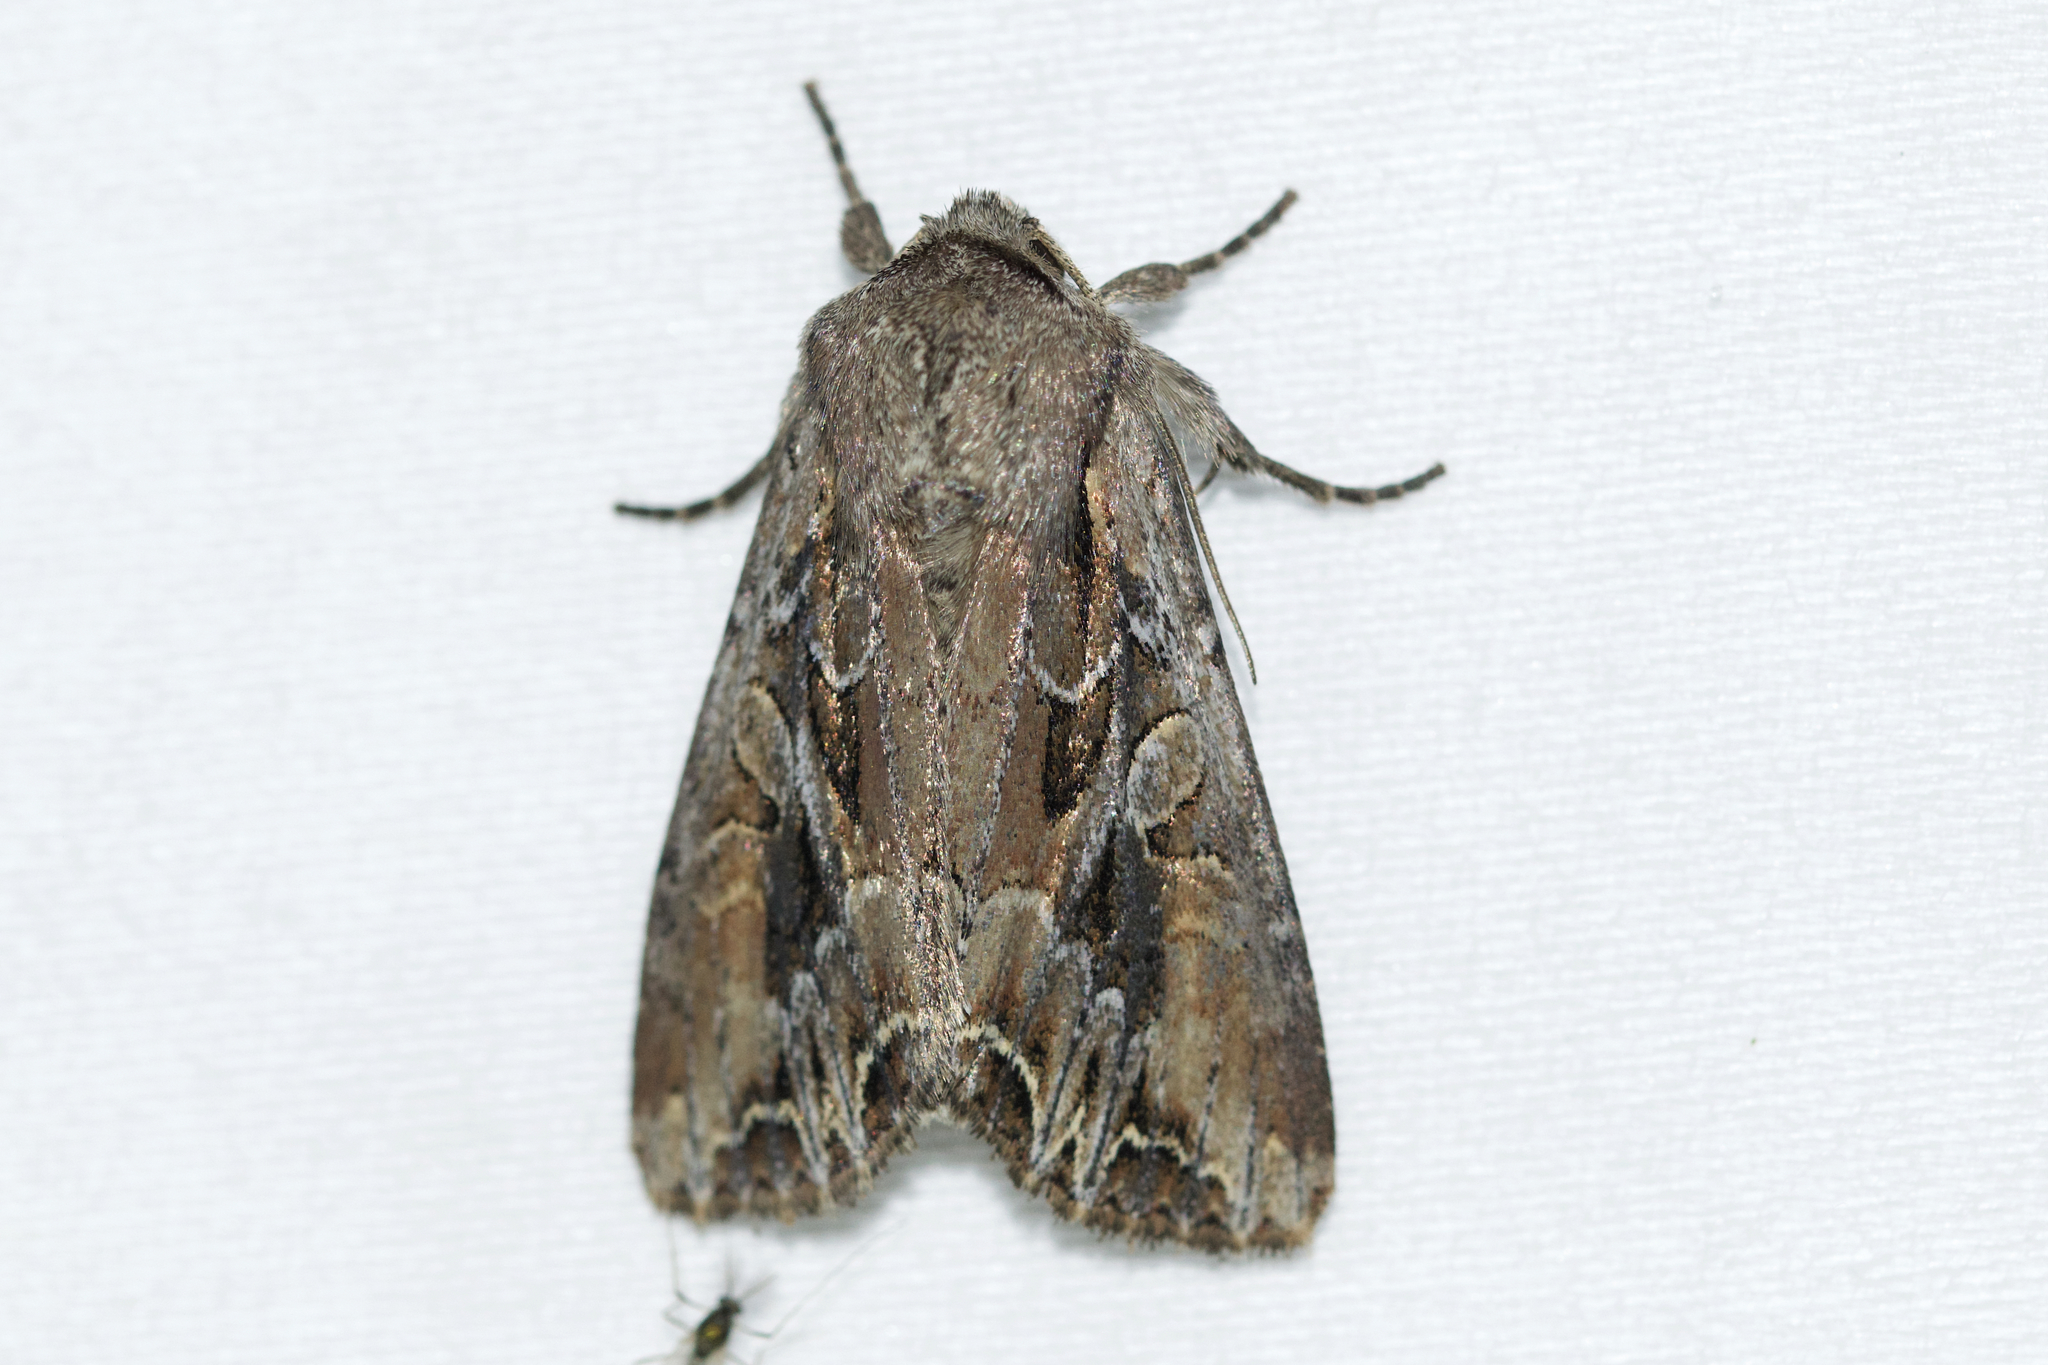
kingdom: Animalia
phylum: Arthropoda
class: Insecta
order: Lepidoptera
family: Noctuidae
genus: Lacanobia
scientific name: Lacanobia atlantica
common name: Atlantic arches moth
